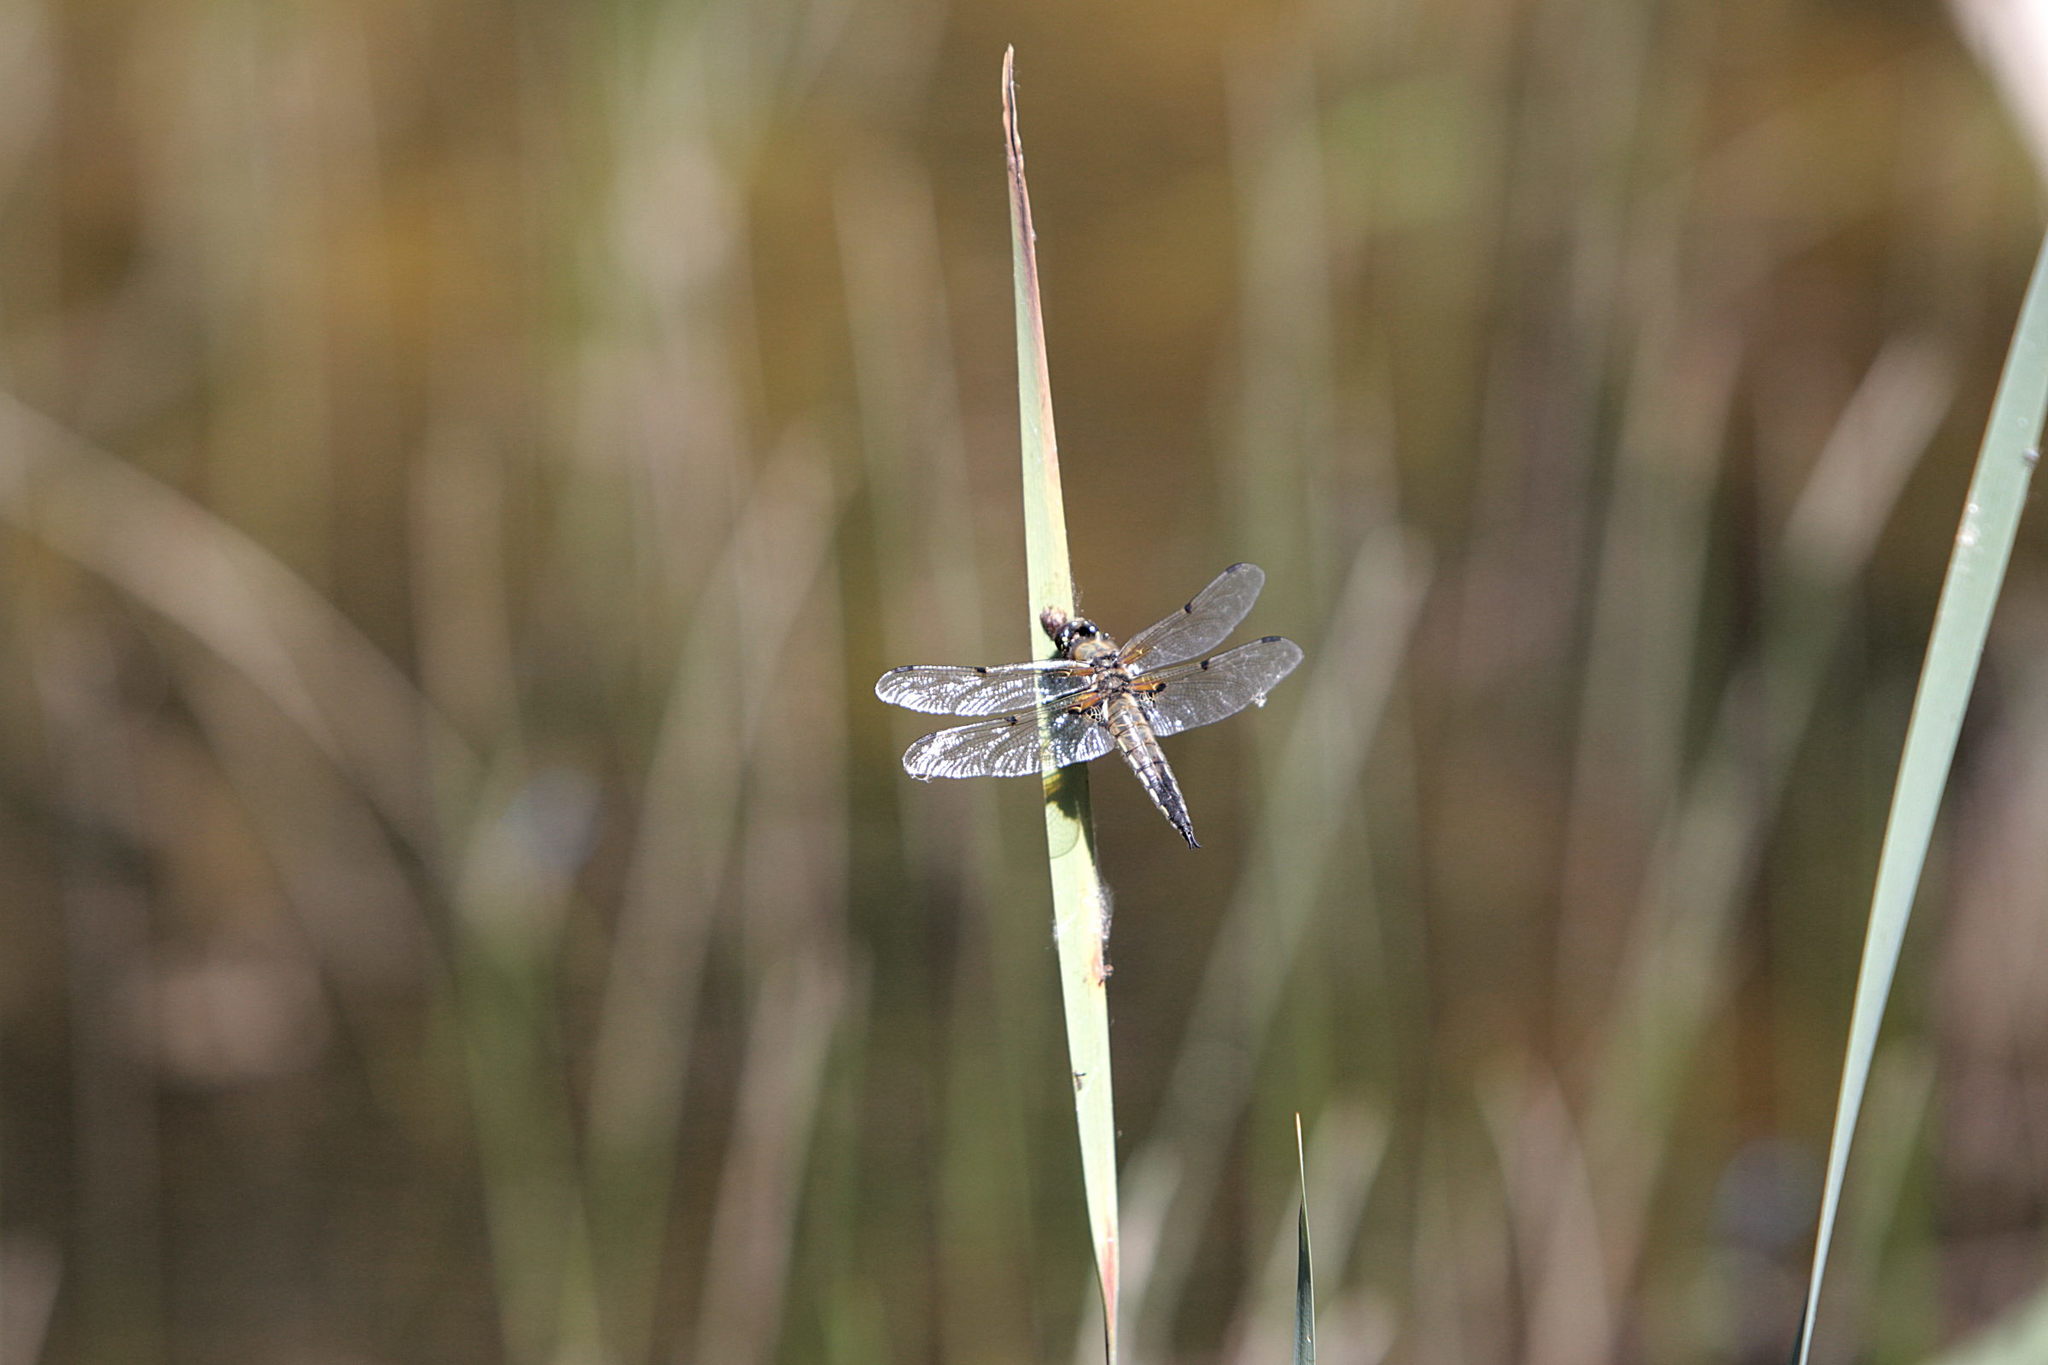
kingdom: Animalia
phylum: Arthropoda
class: Insecta
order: Odonata
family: Libellulidae
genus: Libellula
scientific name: Libellula quadrimaculata
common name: Four-spotted chaser
